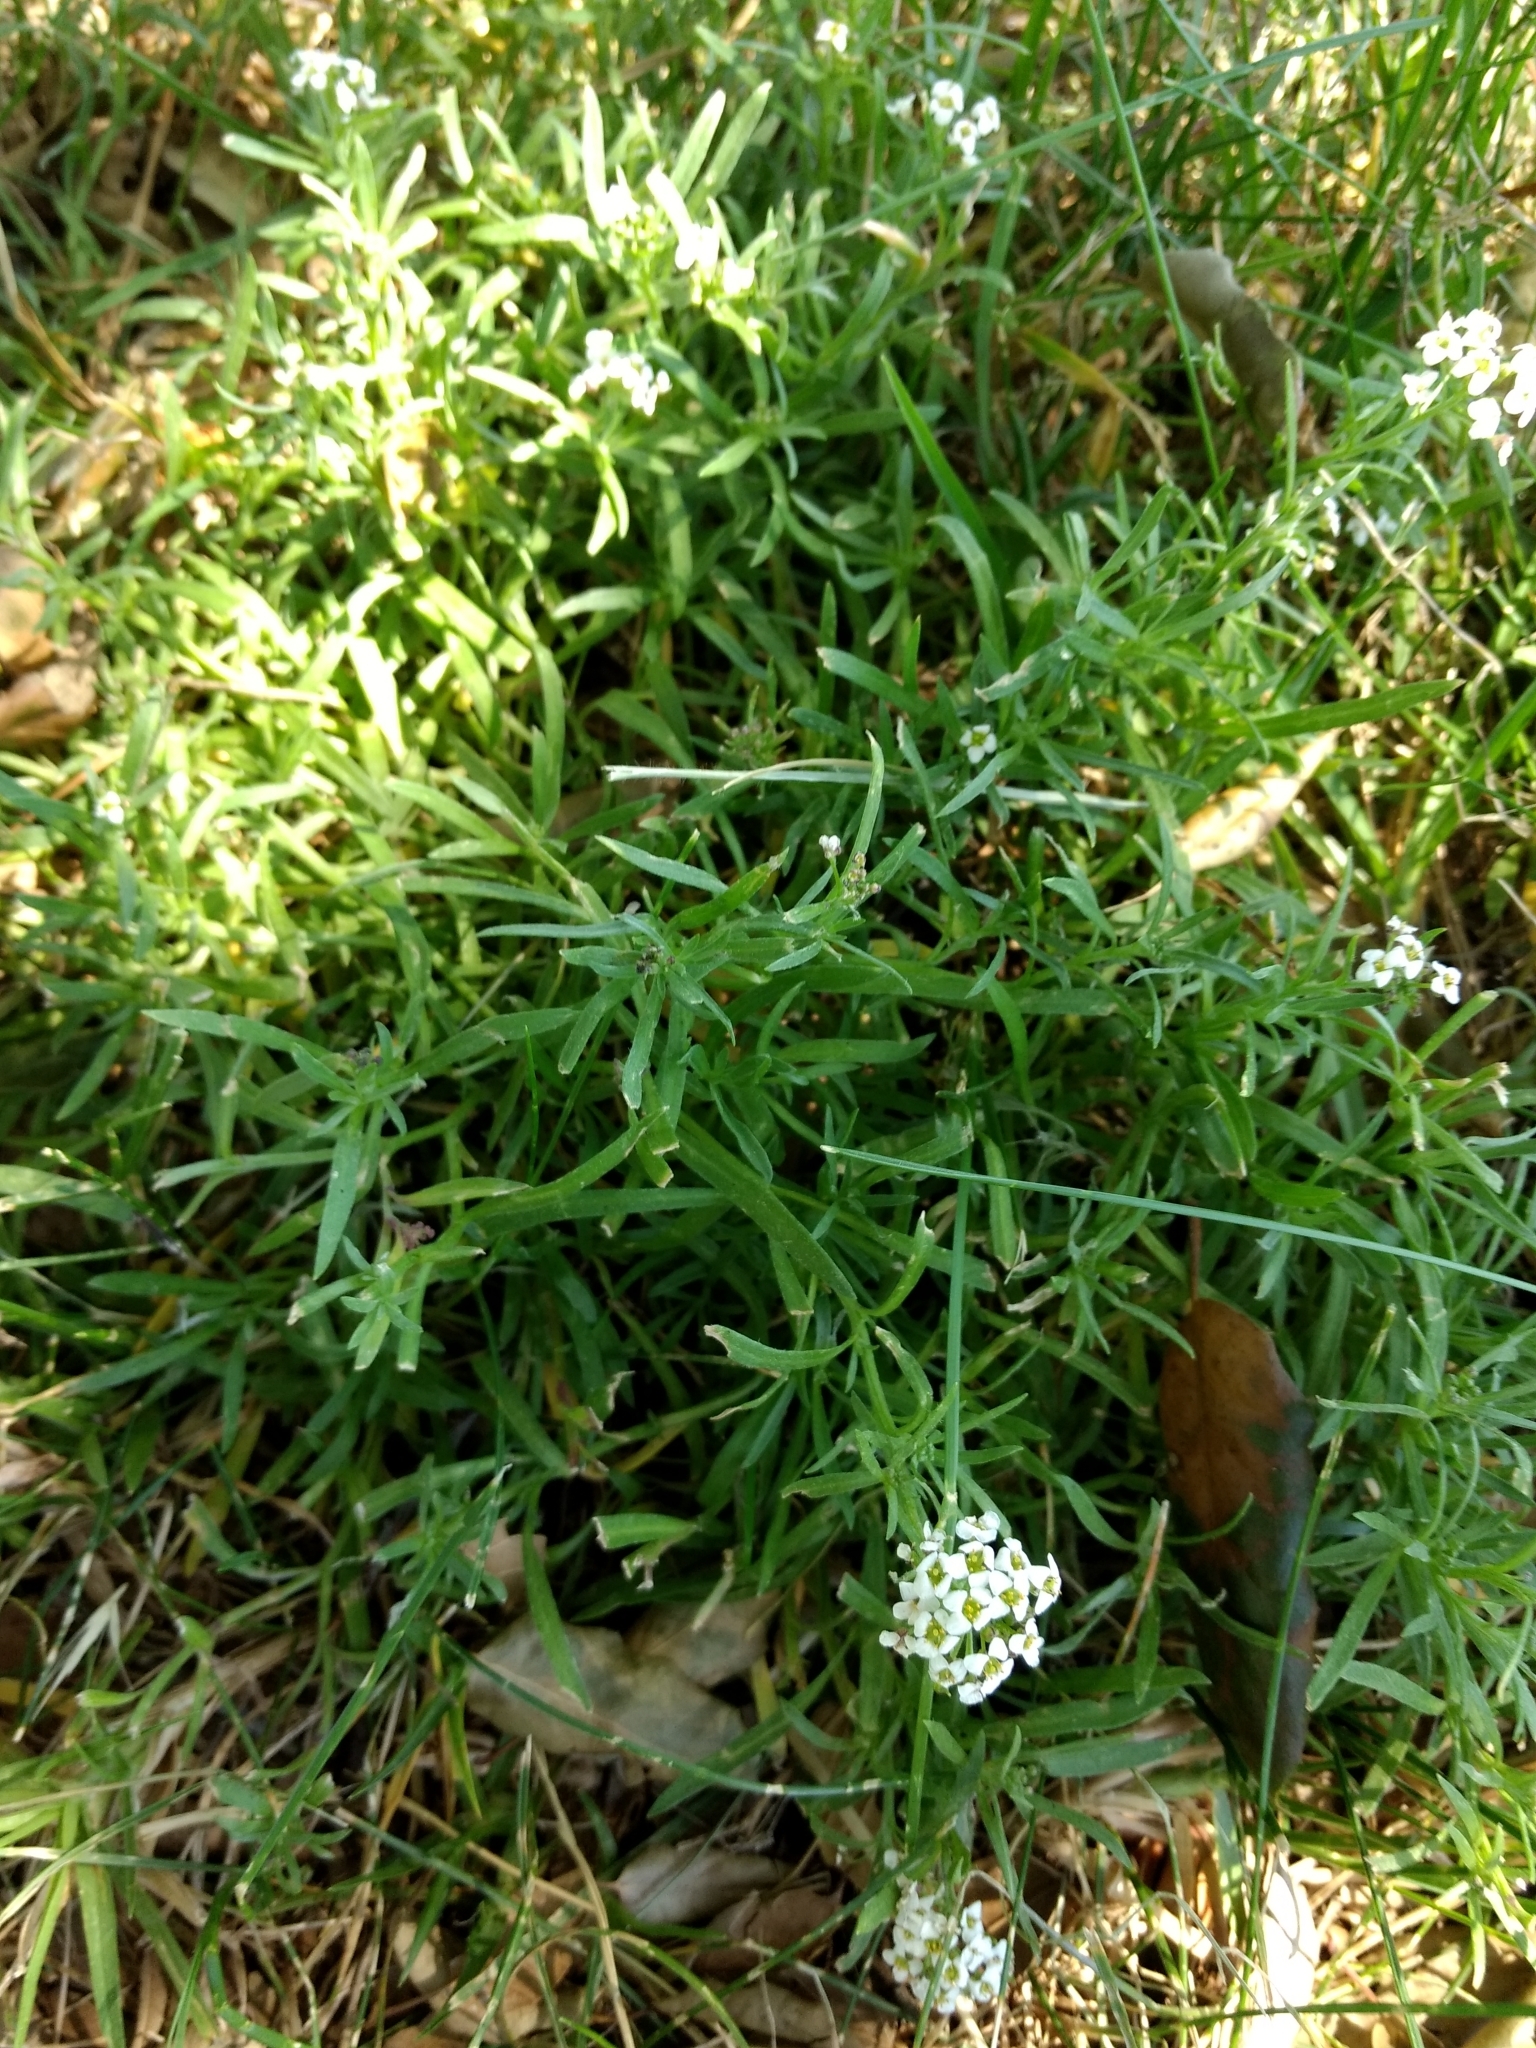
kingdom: Plantae
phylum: Tracheophyta
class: Magnoliopsida
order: Brassicales
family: Brassicaceae
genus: Lobularia
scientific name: Lobularia maritima
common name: Sweet alison
